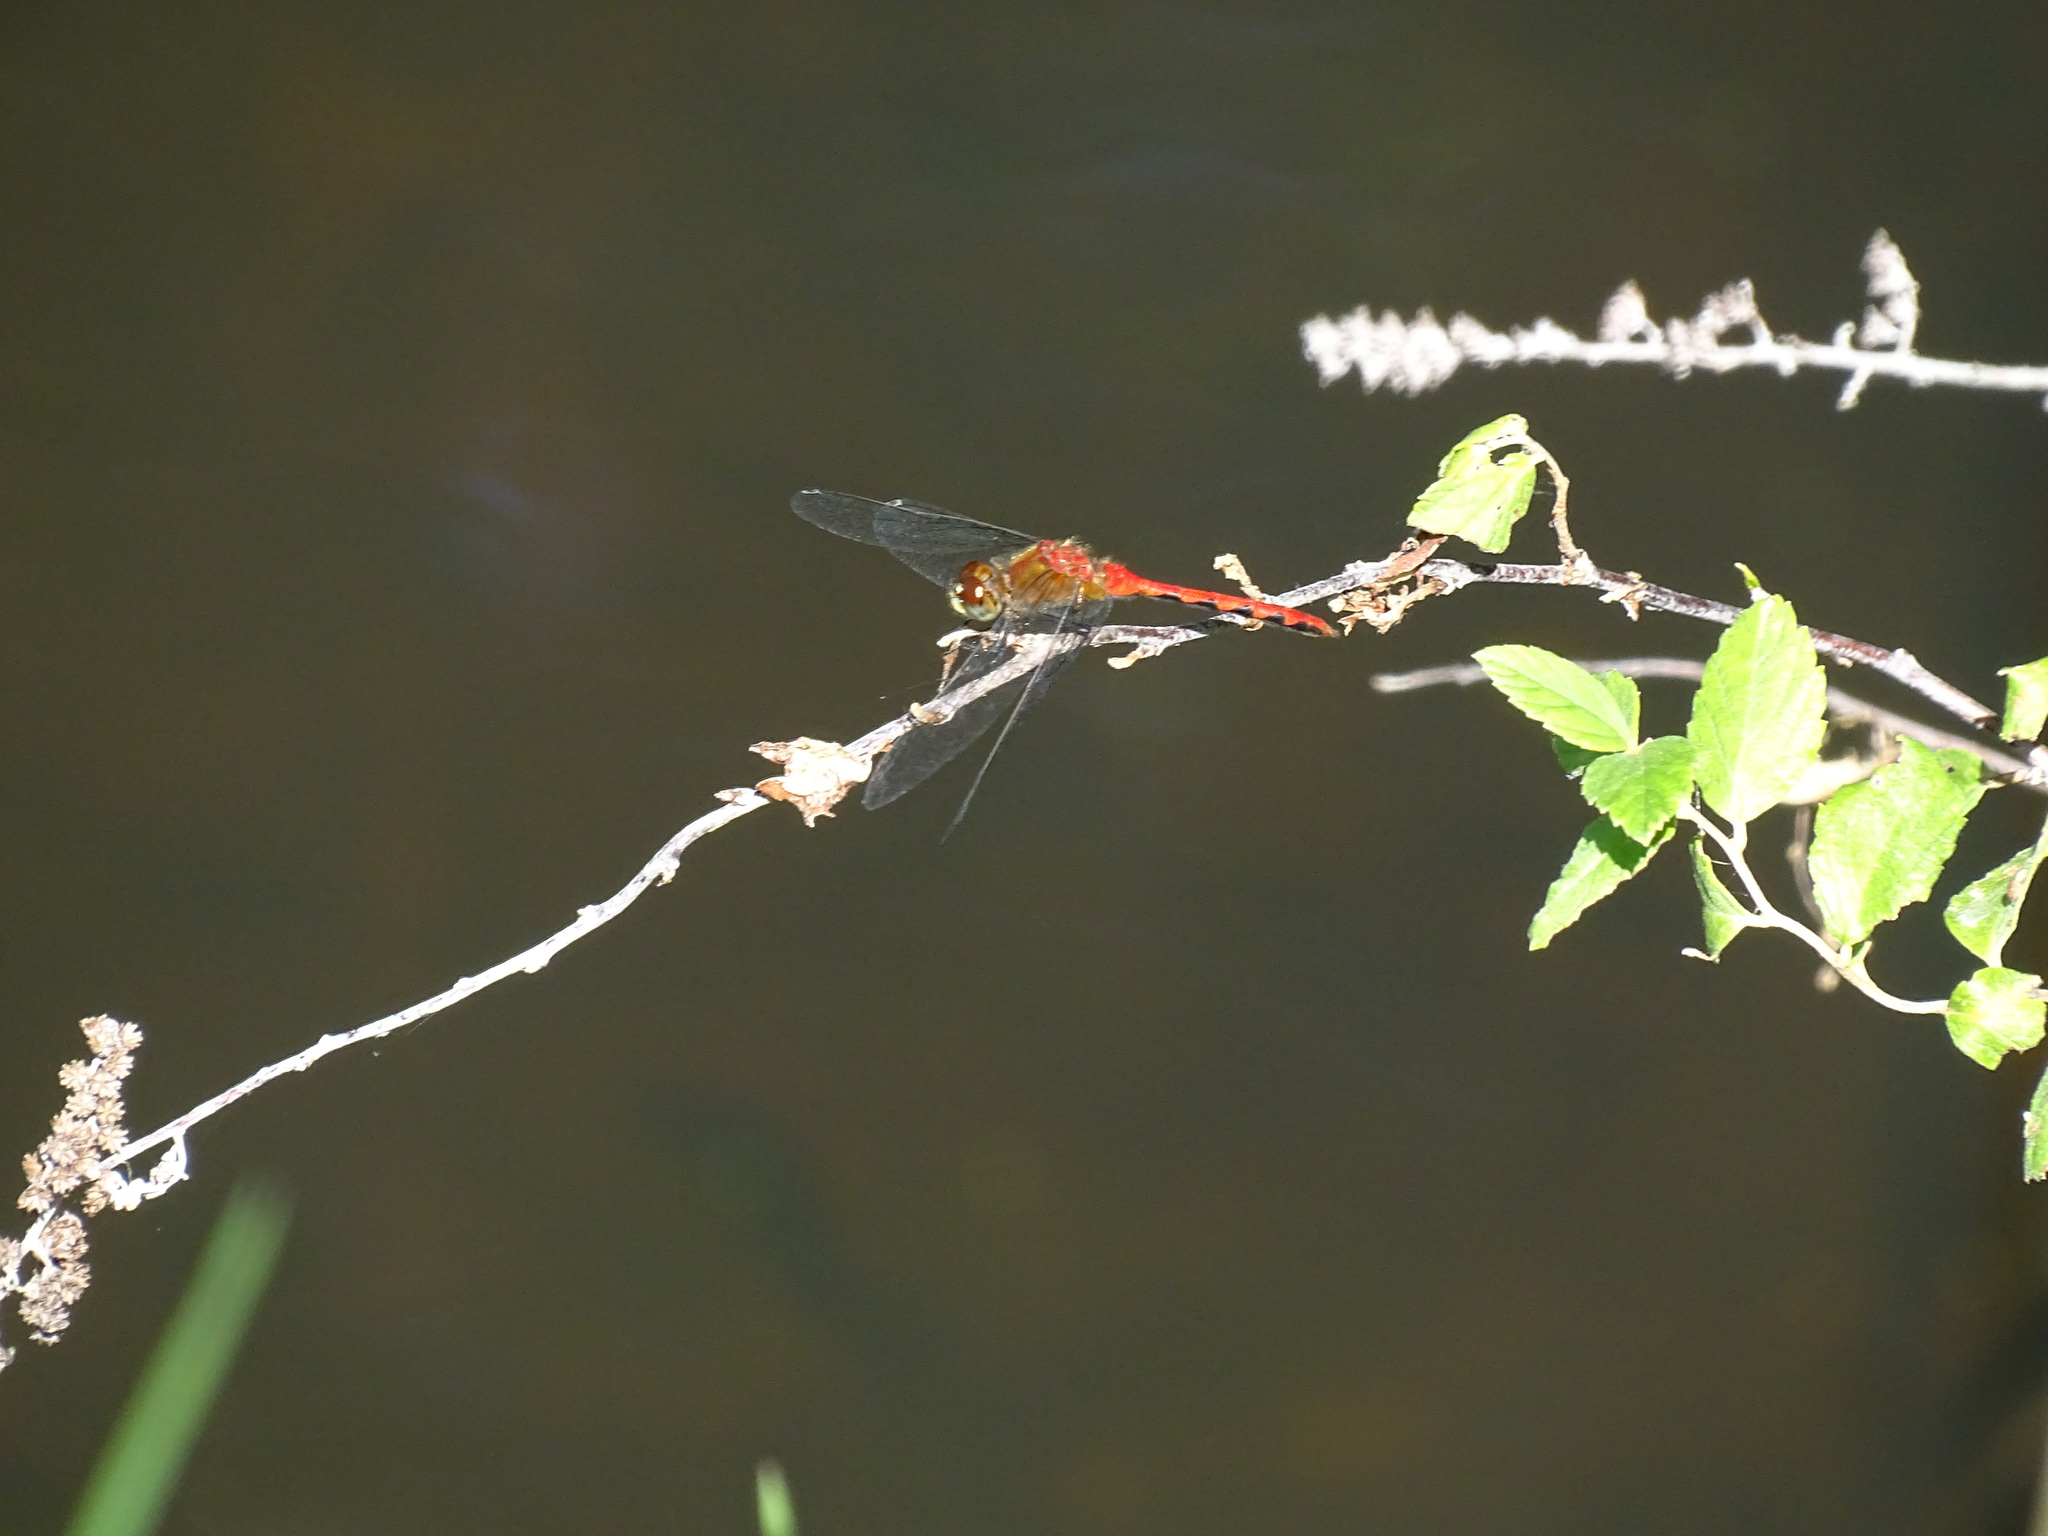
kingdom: Animalia
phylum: Arthropoda
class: Insecta
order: Odonata
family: Libellulidae
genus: Sympetrum
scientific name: Sympetrum obtrusum
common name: White-faced meadowhawk
